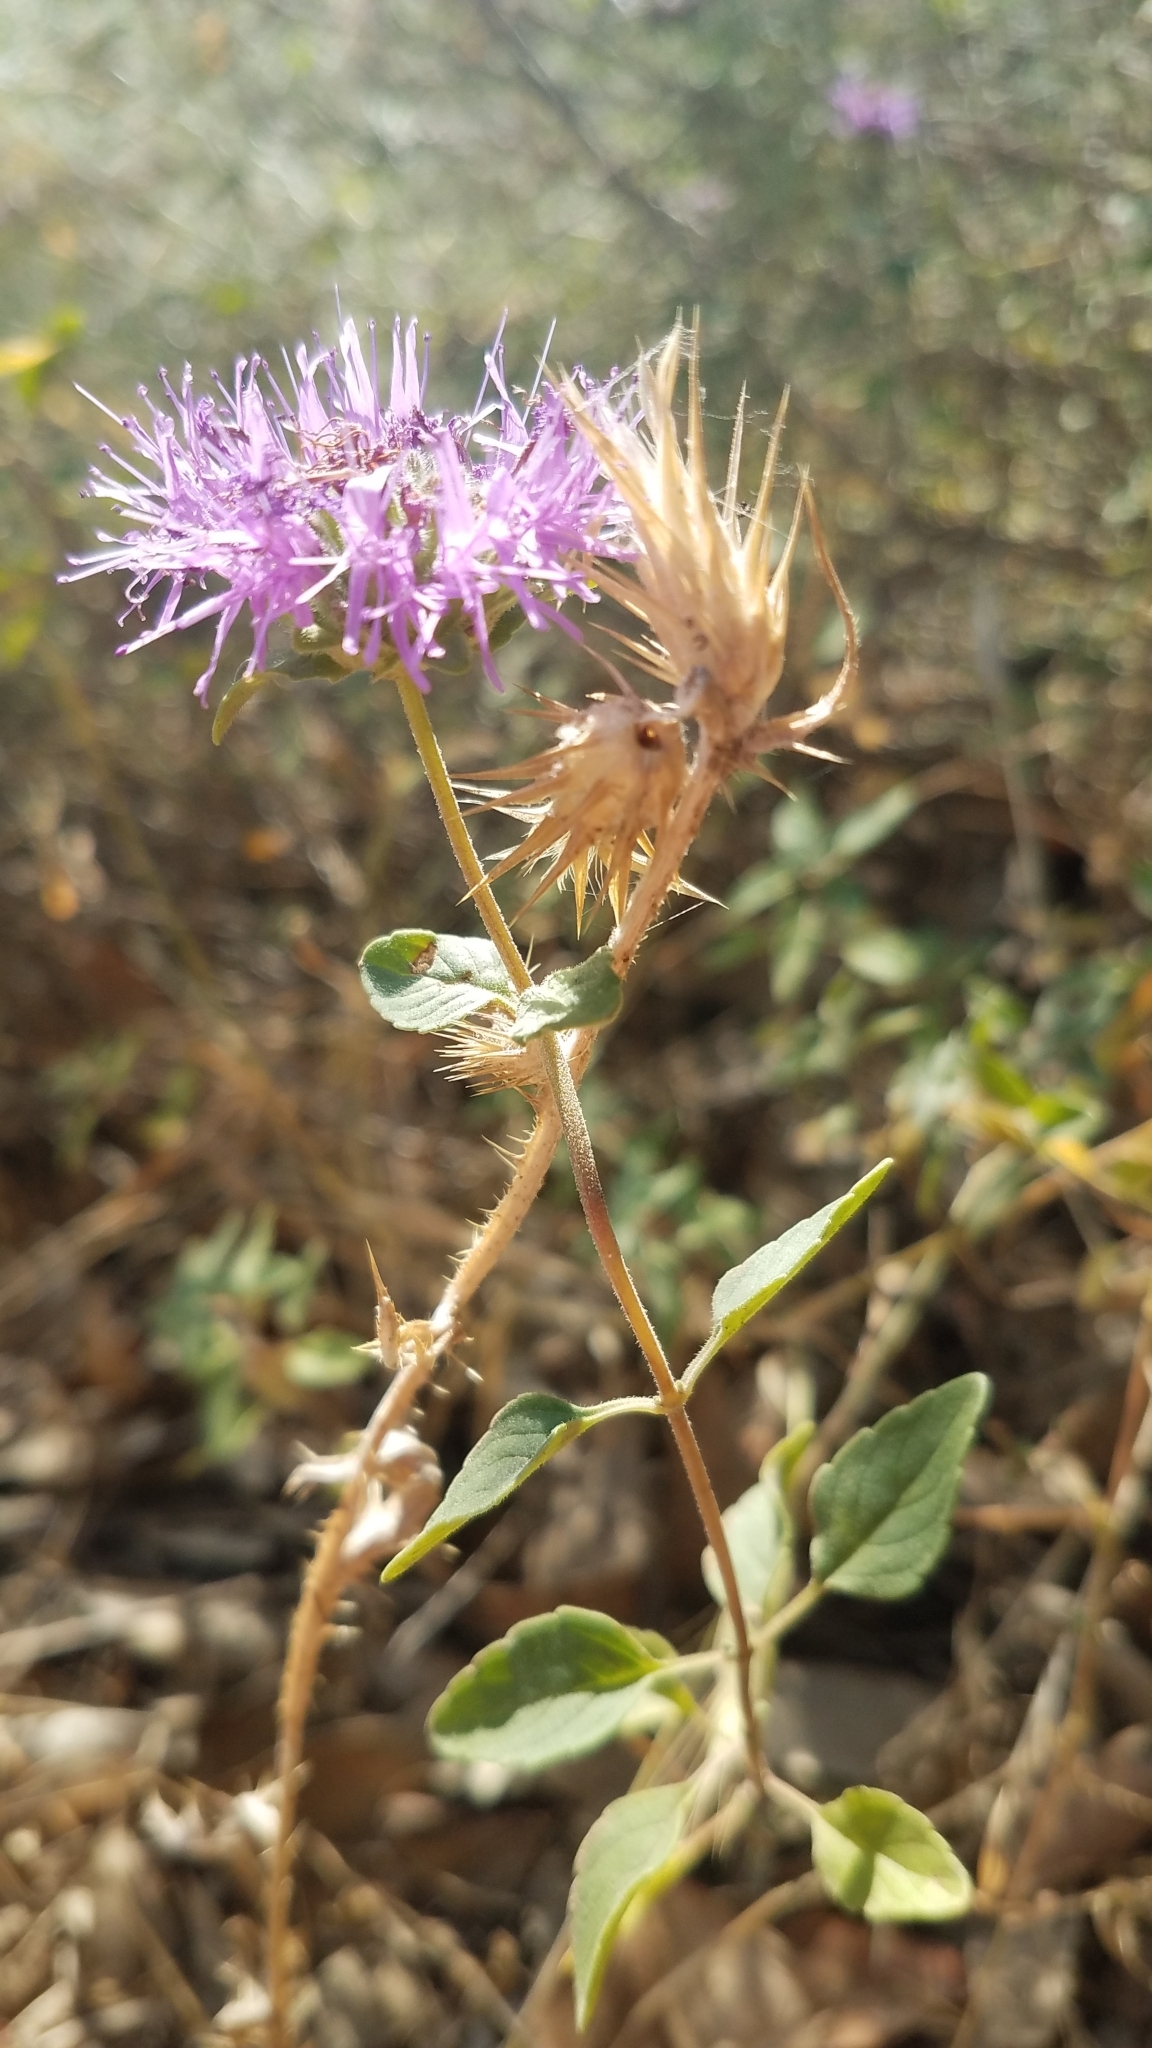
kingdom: Plantae
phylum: Tracheophyta
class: Magnoliopsida
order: Lamiales
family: Lamiaceae
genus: Monardella
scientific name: Monardella odoratissima
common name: Pacific monardella
